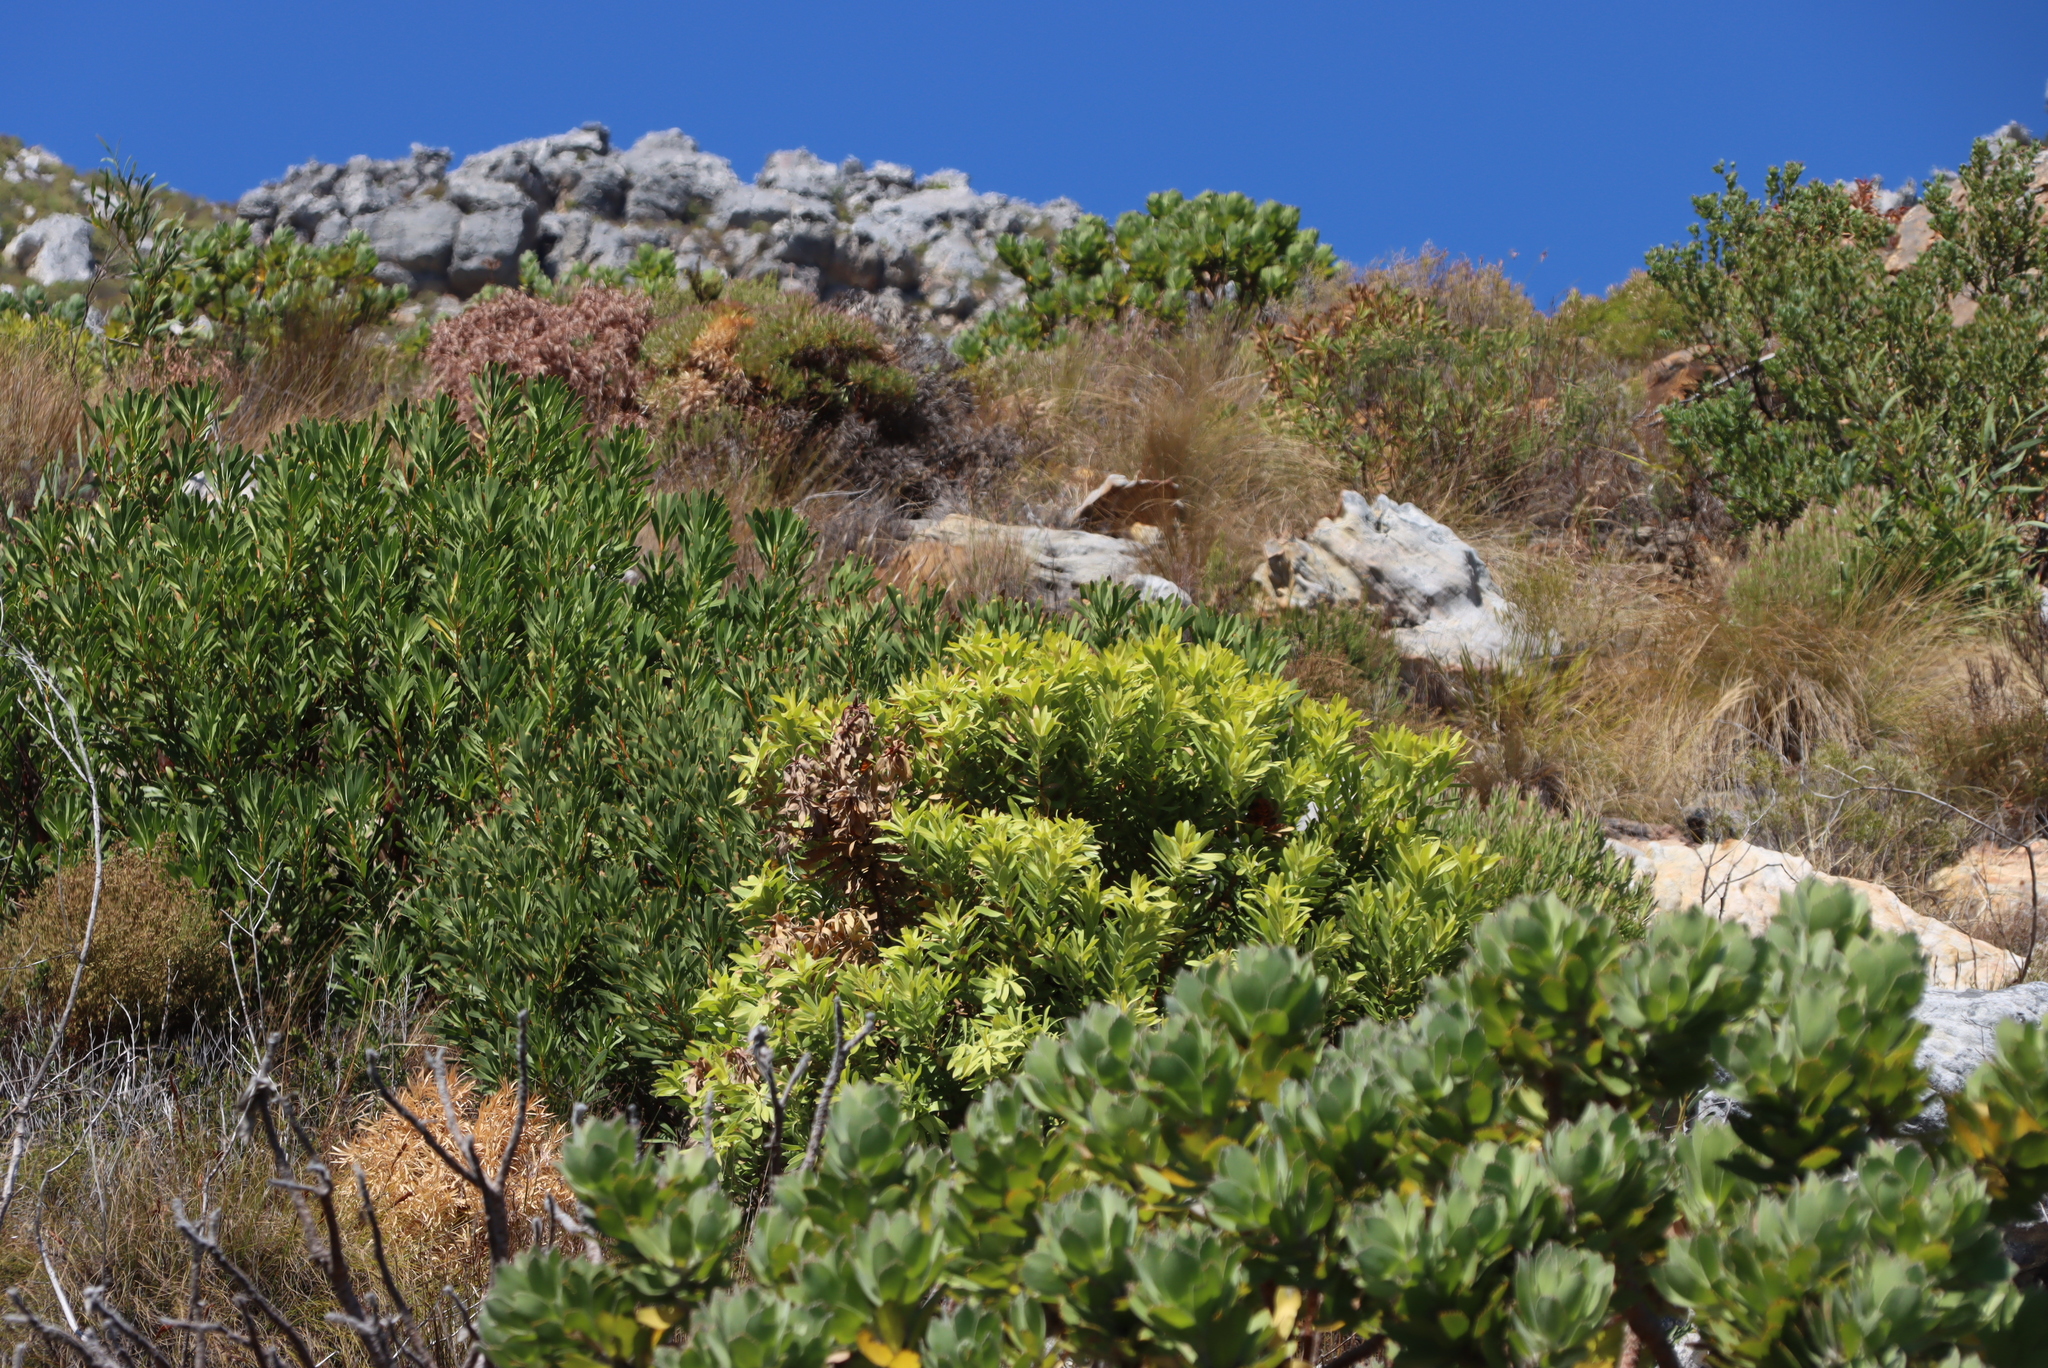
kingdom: Plantae
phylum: Tracheophyta
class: Magnoliopsida
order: Proteales
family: Proteaceae
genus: Leucadendron
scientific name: Leucadendron laureolum
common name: Golden sunshinebush
